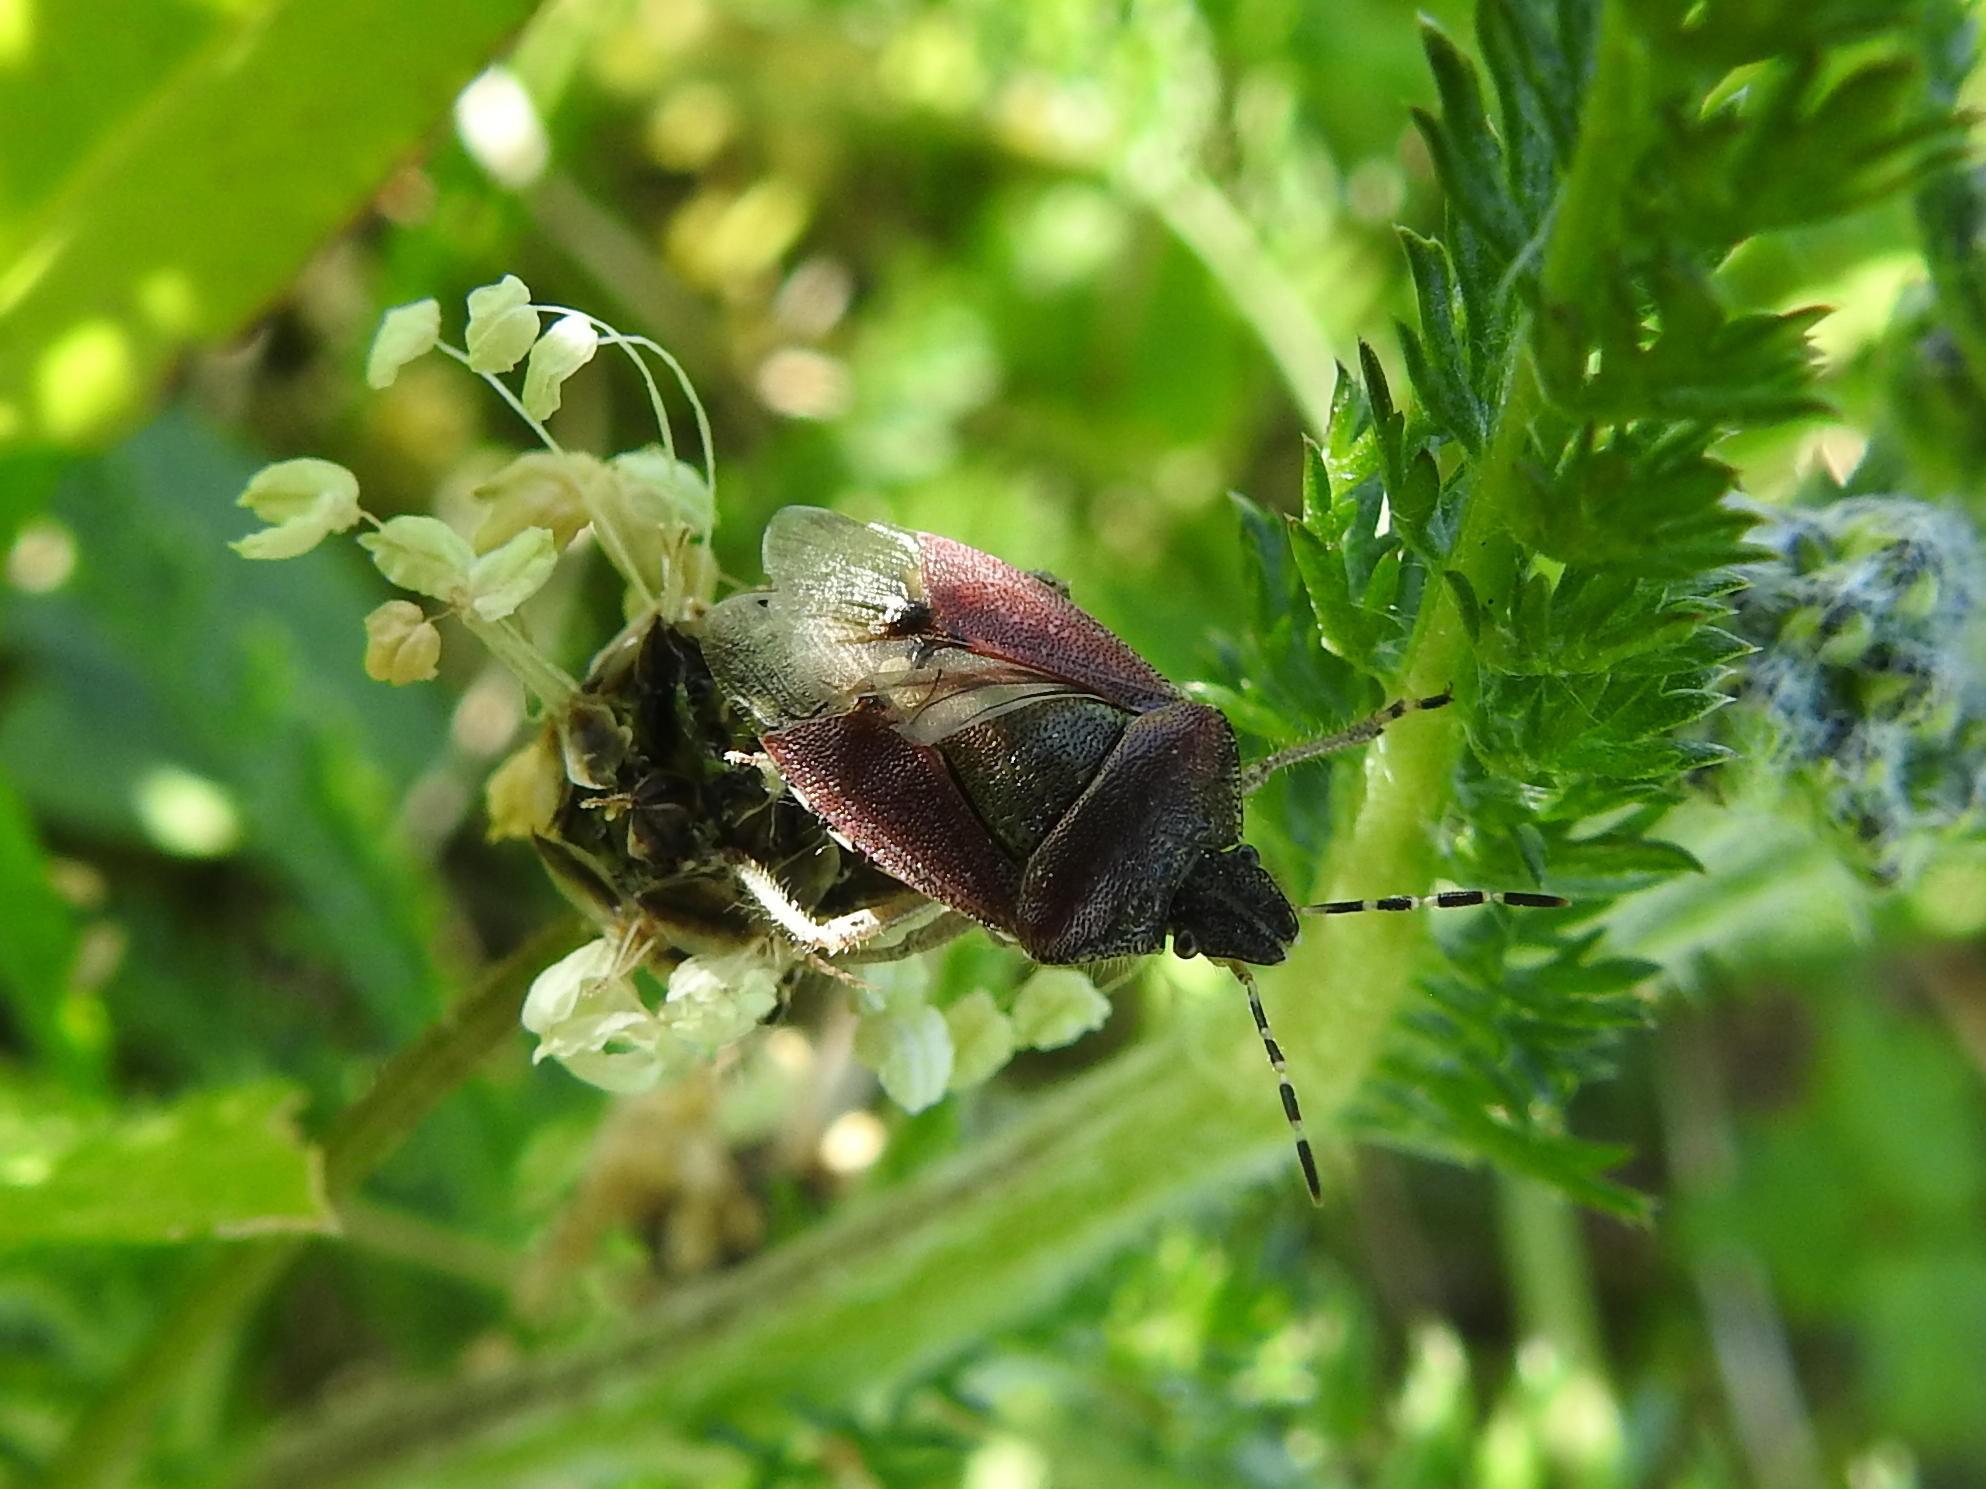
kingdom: Animalia
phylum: Arthropoda
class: Insecta
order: Hemiptera
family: Pentatomidae
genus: Dolycoris
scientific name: Dolycoris baccarum
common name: Sloe bug
